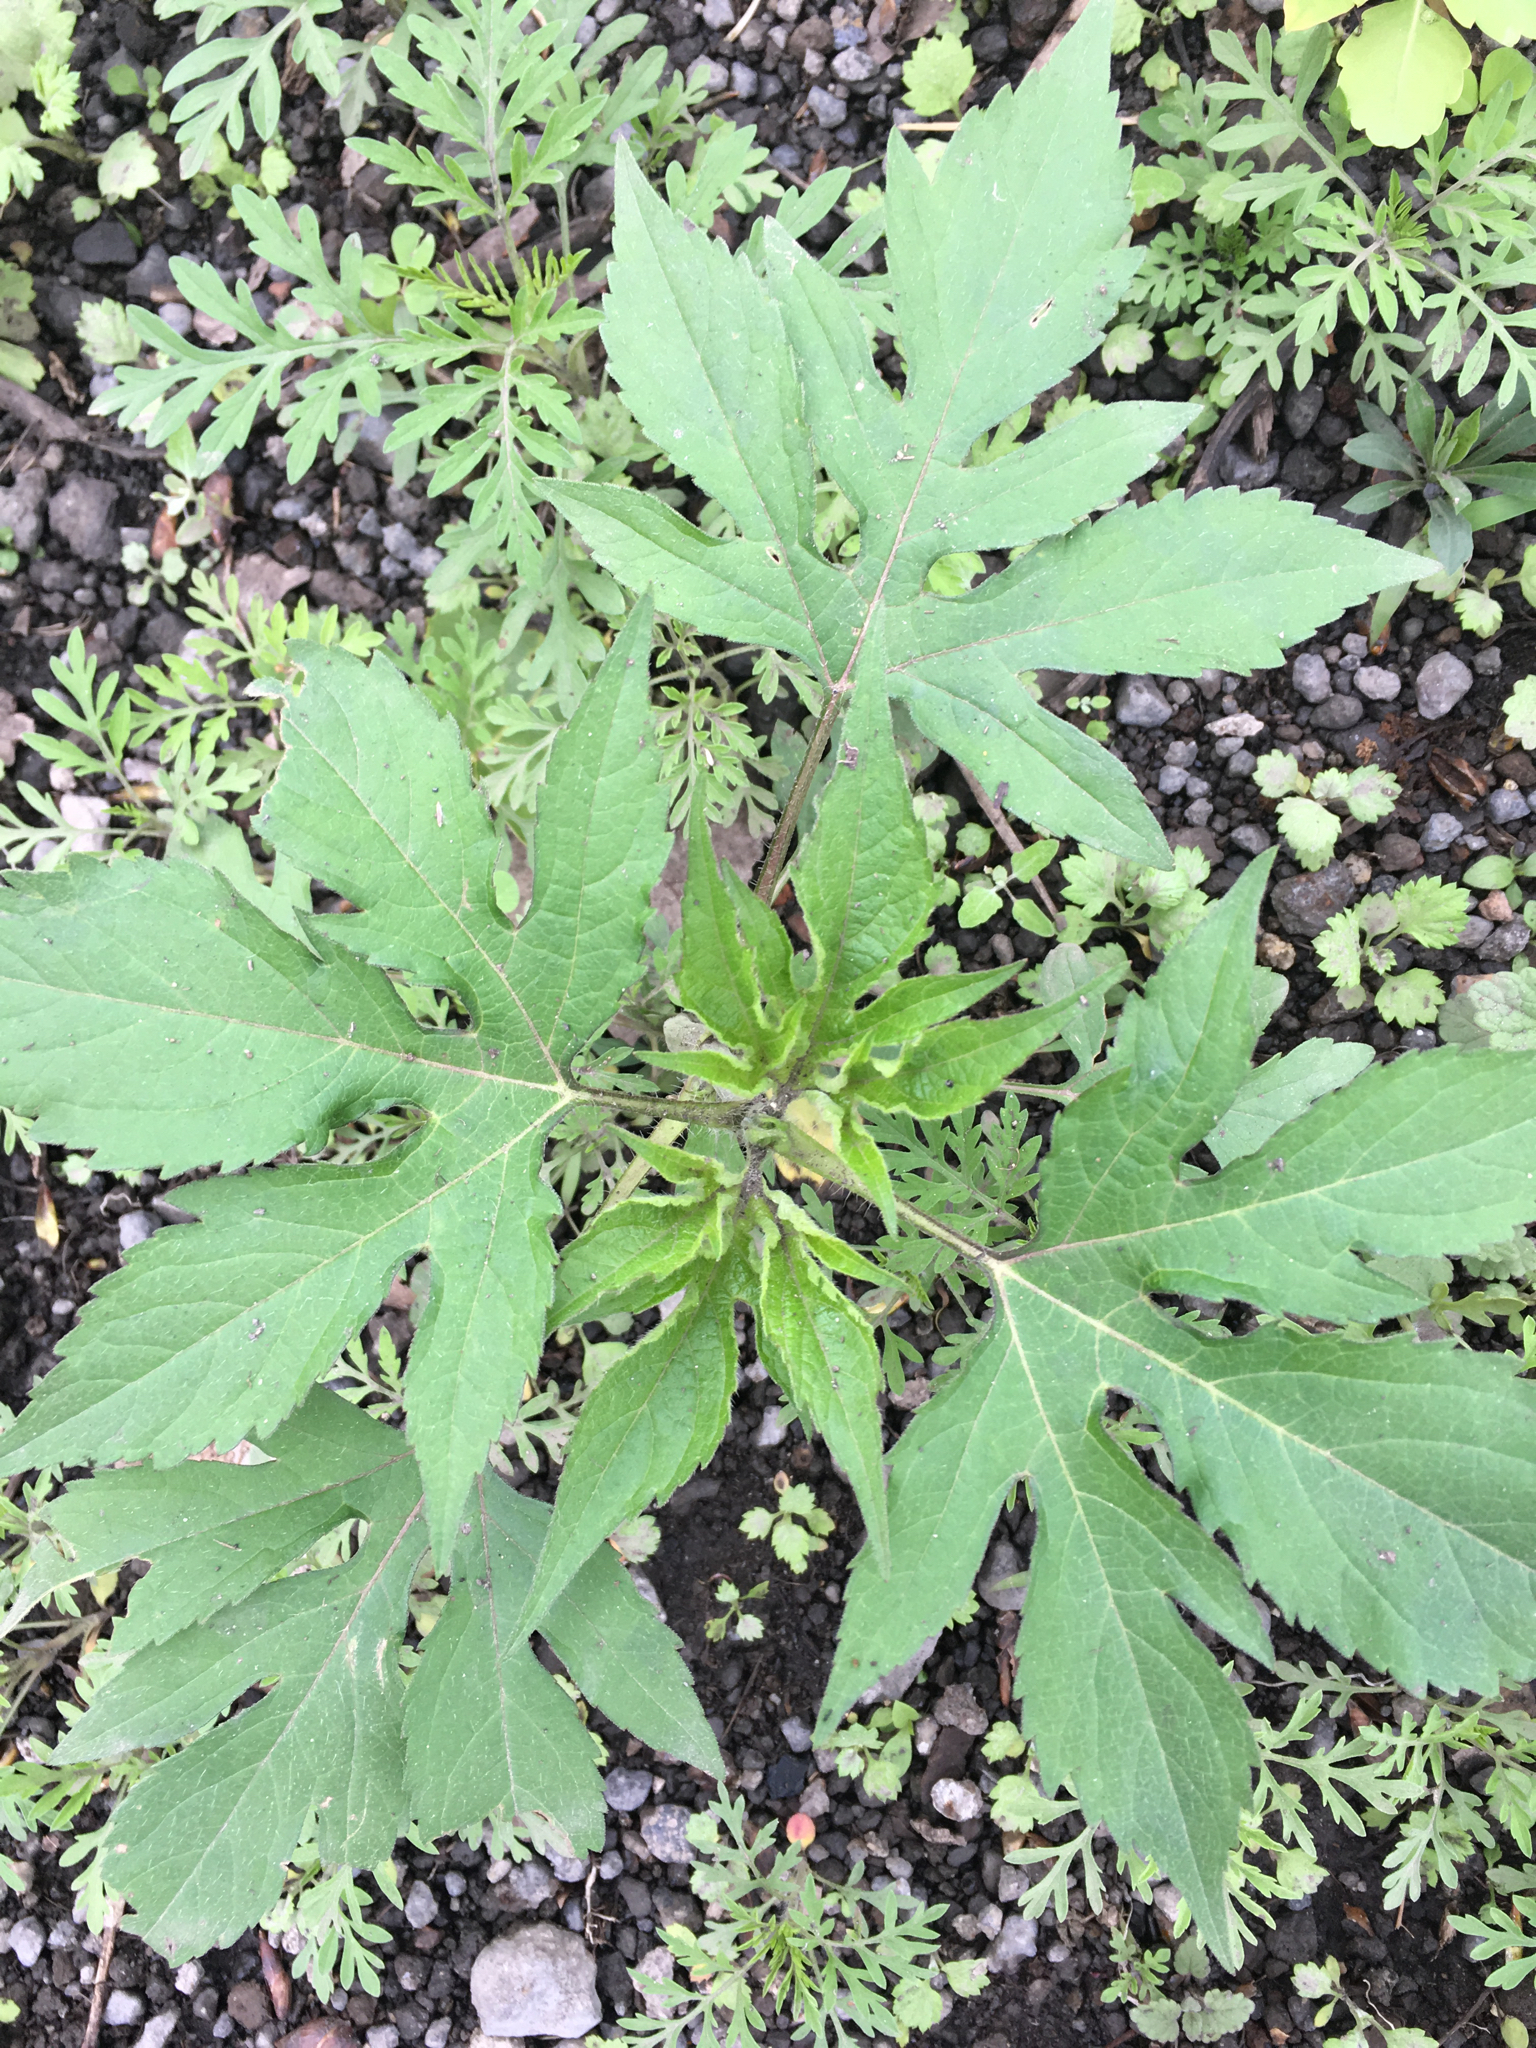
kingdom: Plantae
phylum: Tracheophyta
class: Magnoliopsida
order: Asterales
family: Asteraceae
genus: Ambrosia
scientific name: Ambrosia trifida
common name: Giant ragweed
